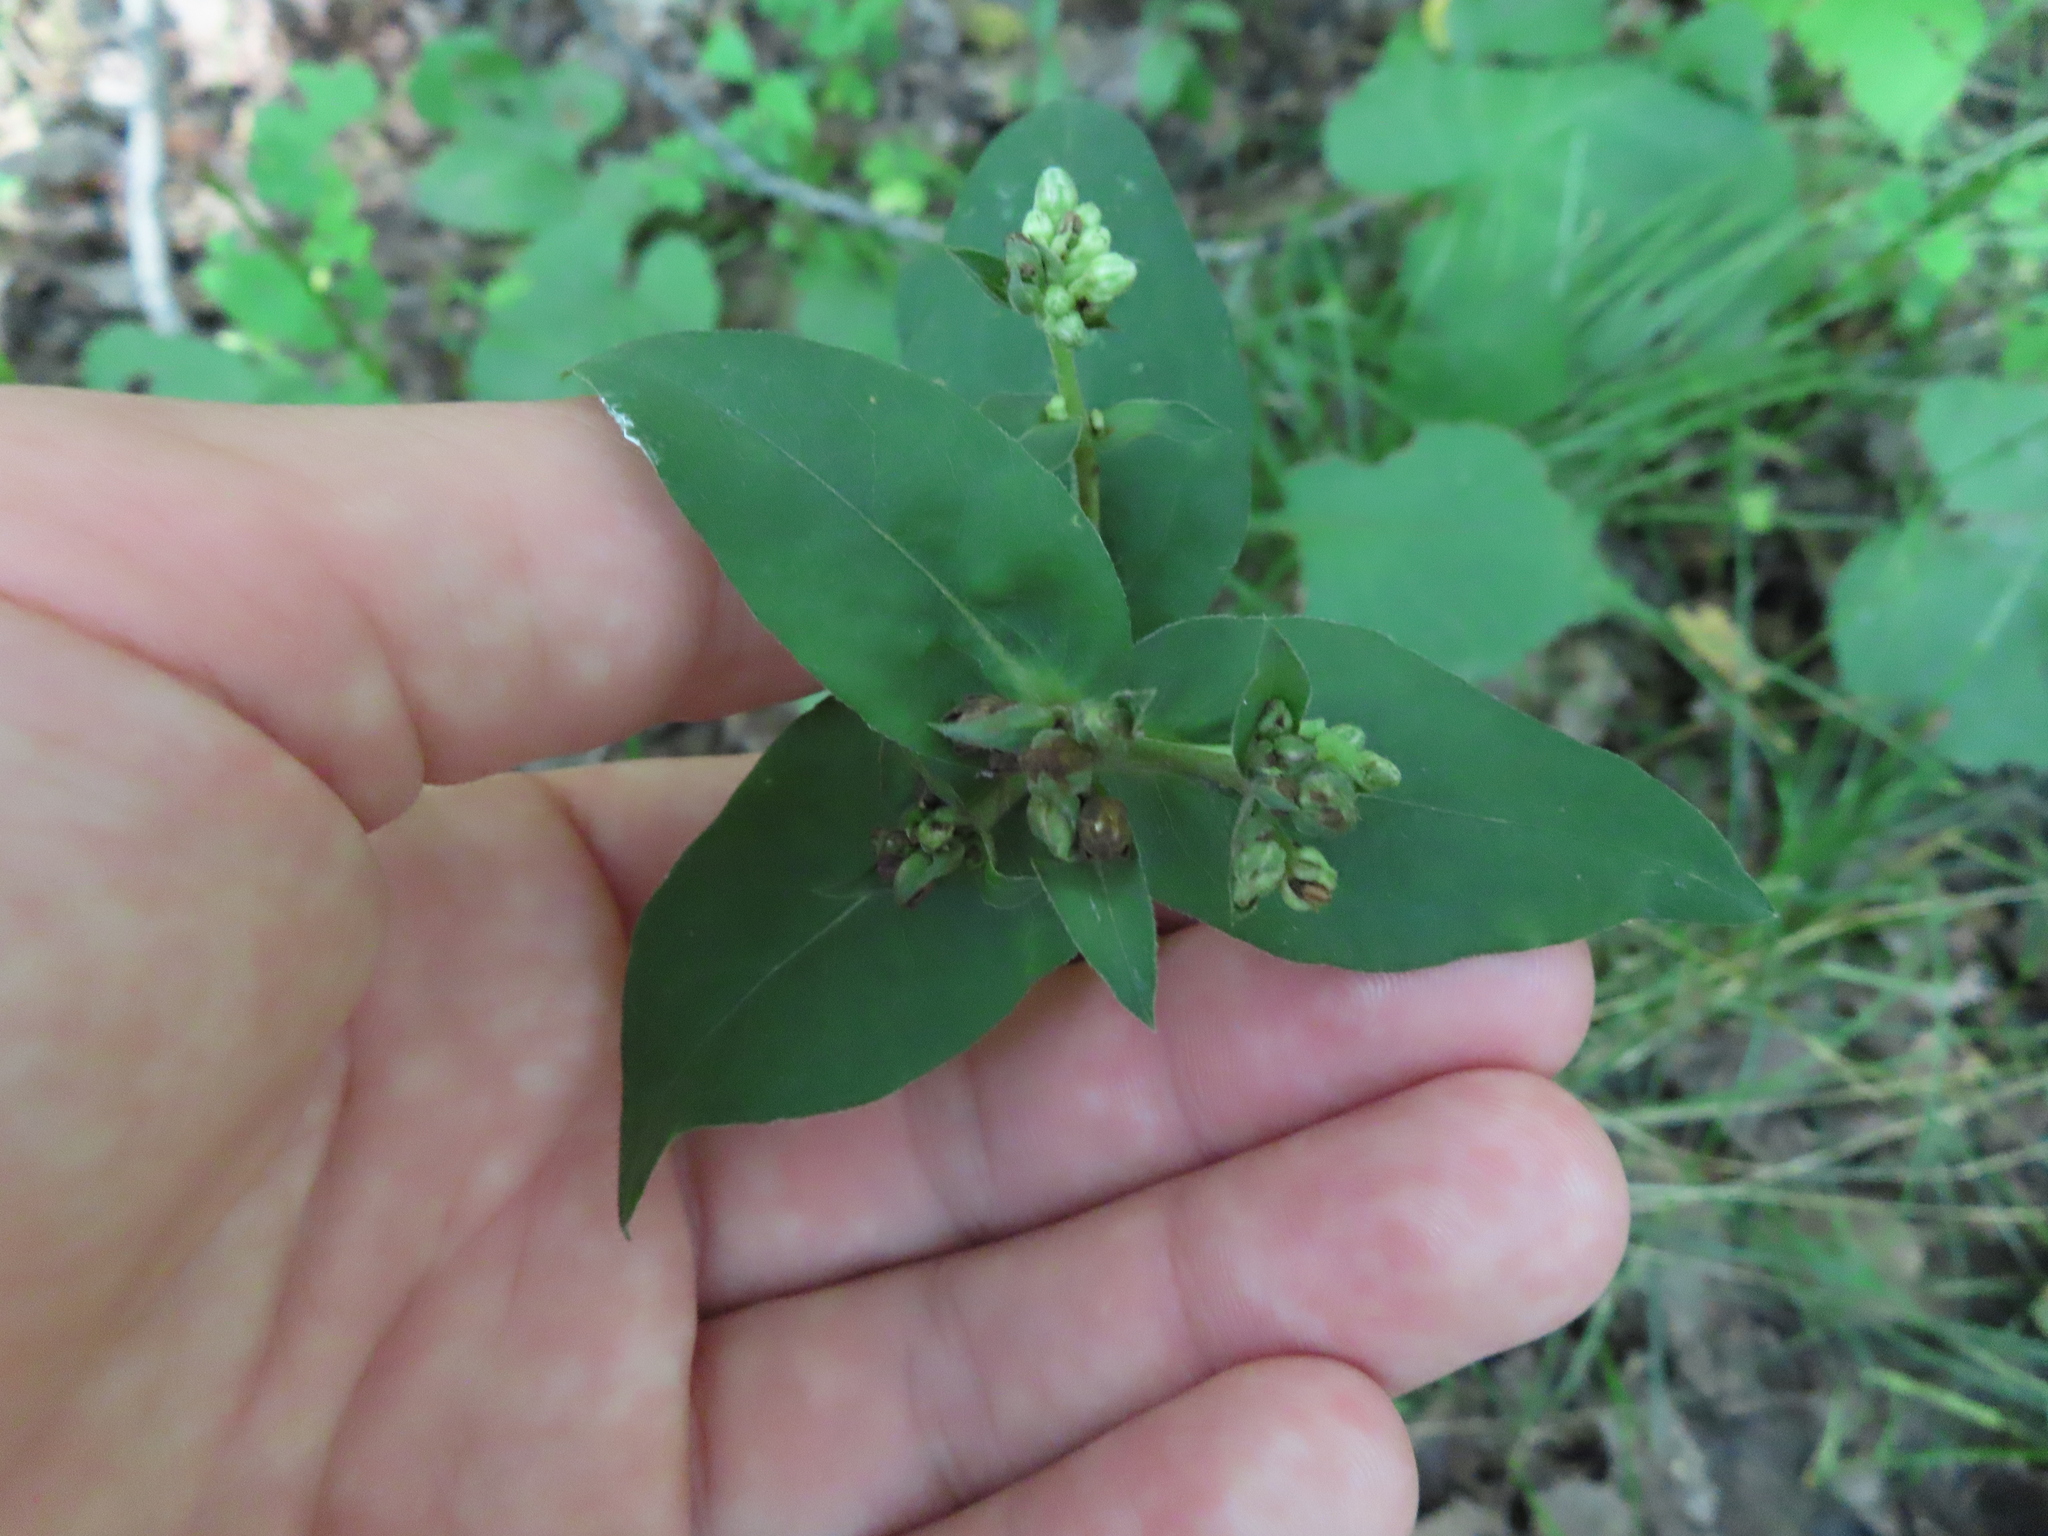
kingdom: Plantae
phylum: Tracheophyta
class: Magnoliopsida
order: Asterales
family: Asteraceae
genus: Eurybia
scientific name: Eurybia macrophylla
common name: Big-leaved aster
